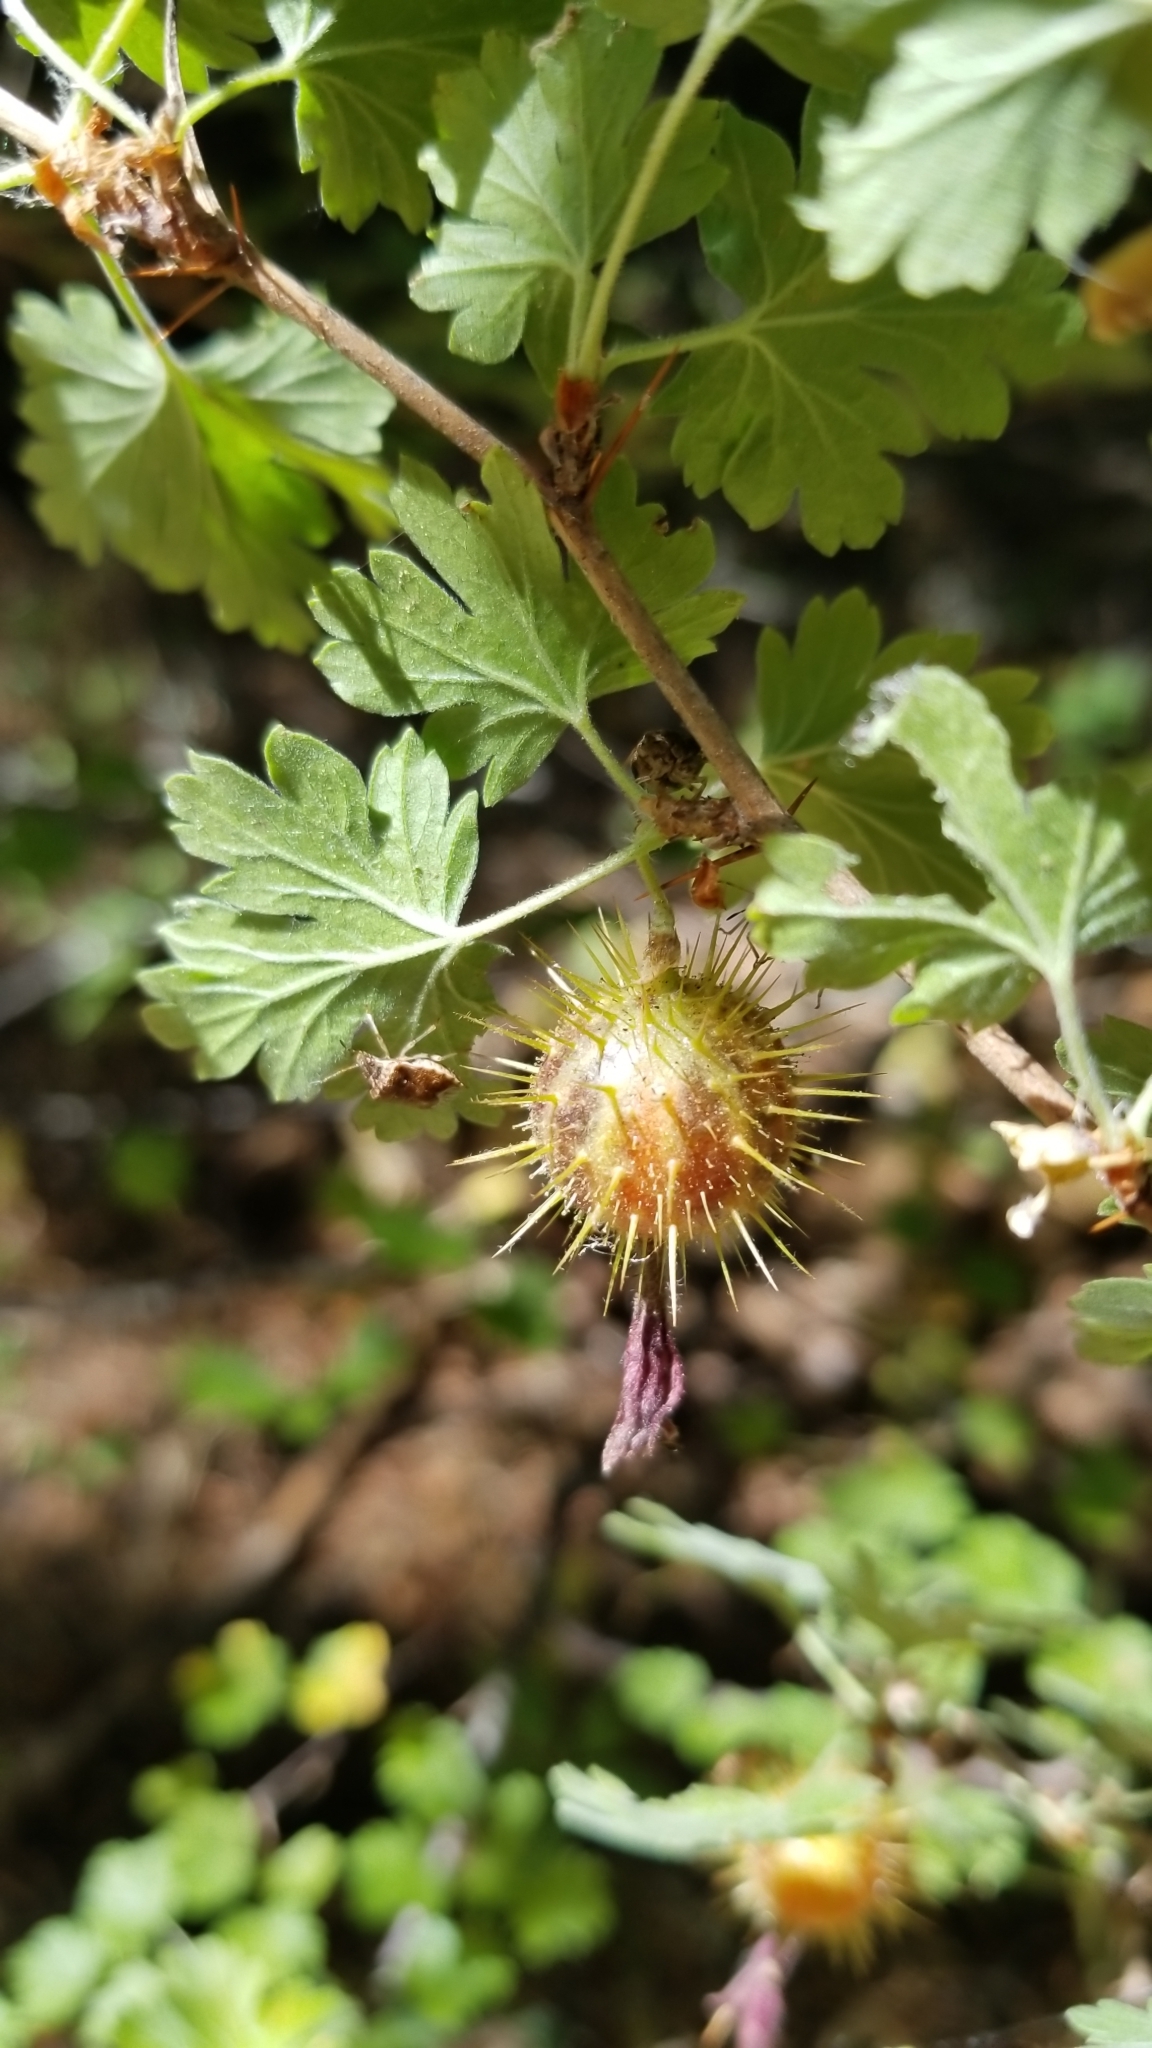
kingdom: Plantae
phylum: Tracheophyta
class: Magnoliopsida
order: Saxifragales
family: Grossulariaceae
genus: Ribes
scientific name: Ribes roezlii
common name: Sierra gooseberry
